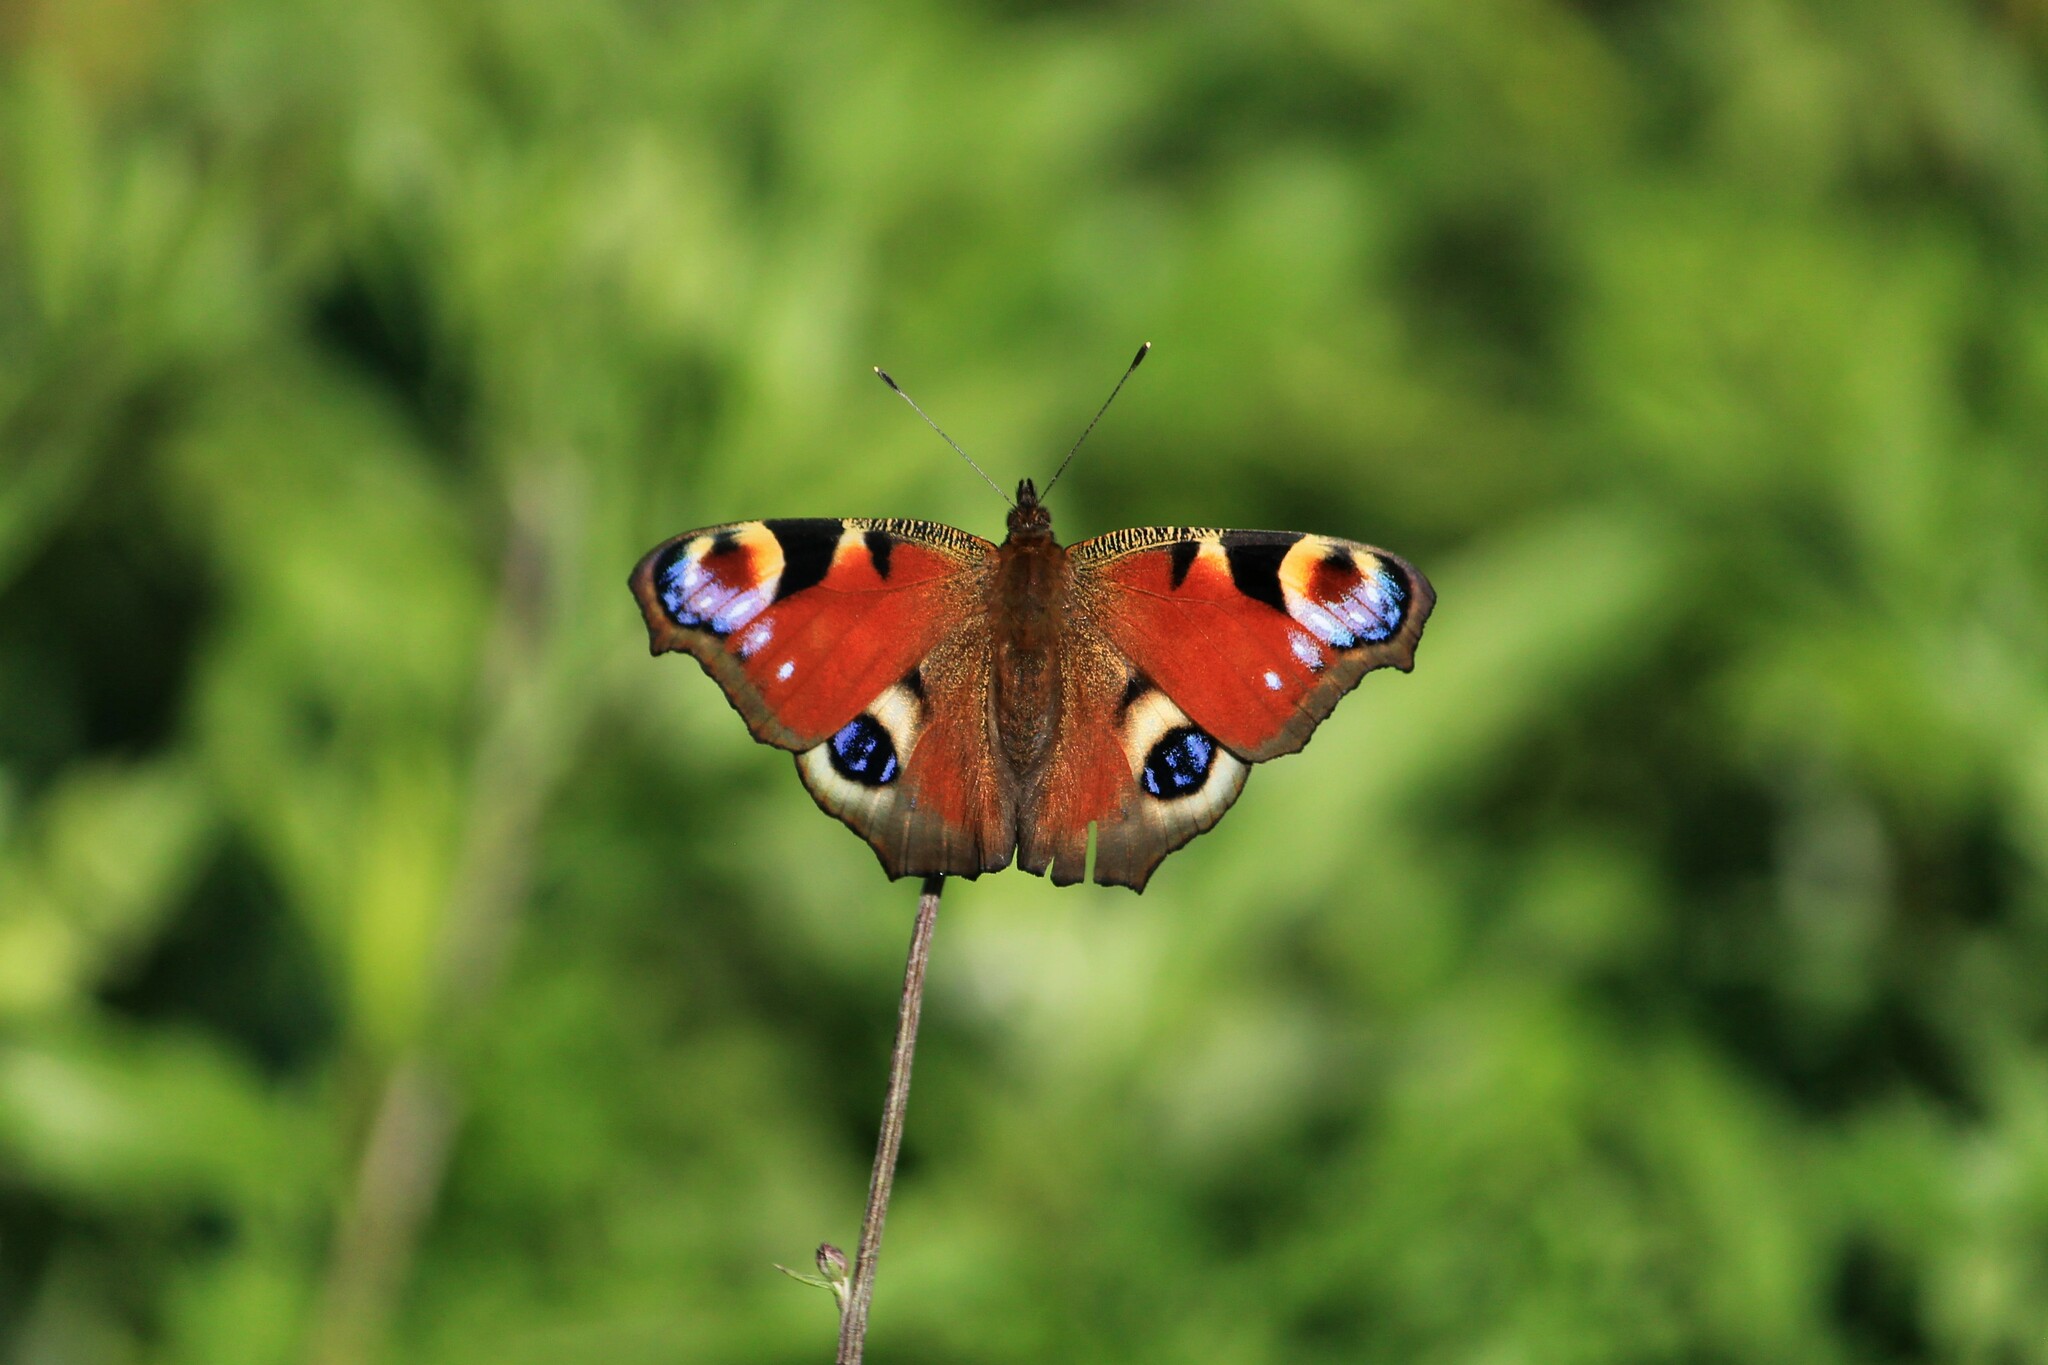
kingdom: Animalia
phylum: Arthropoda
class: Insecta
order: Lepidoptera
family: Nymphalidae
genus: Aglais
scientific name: Aglais io
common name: Peacock
